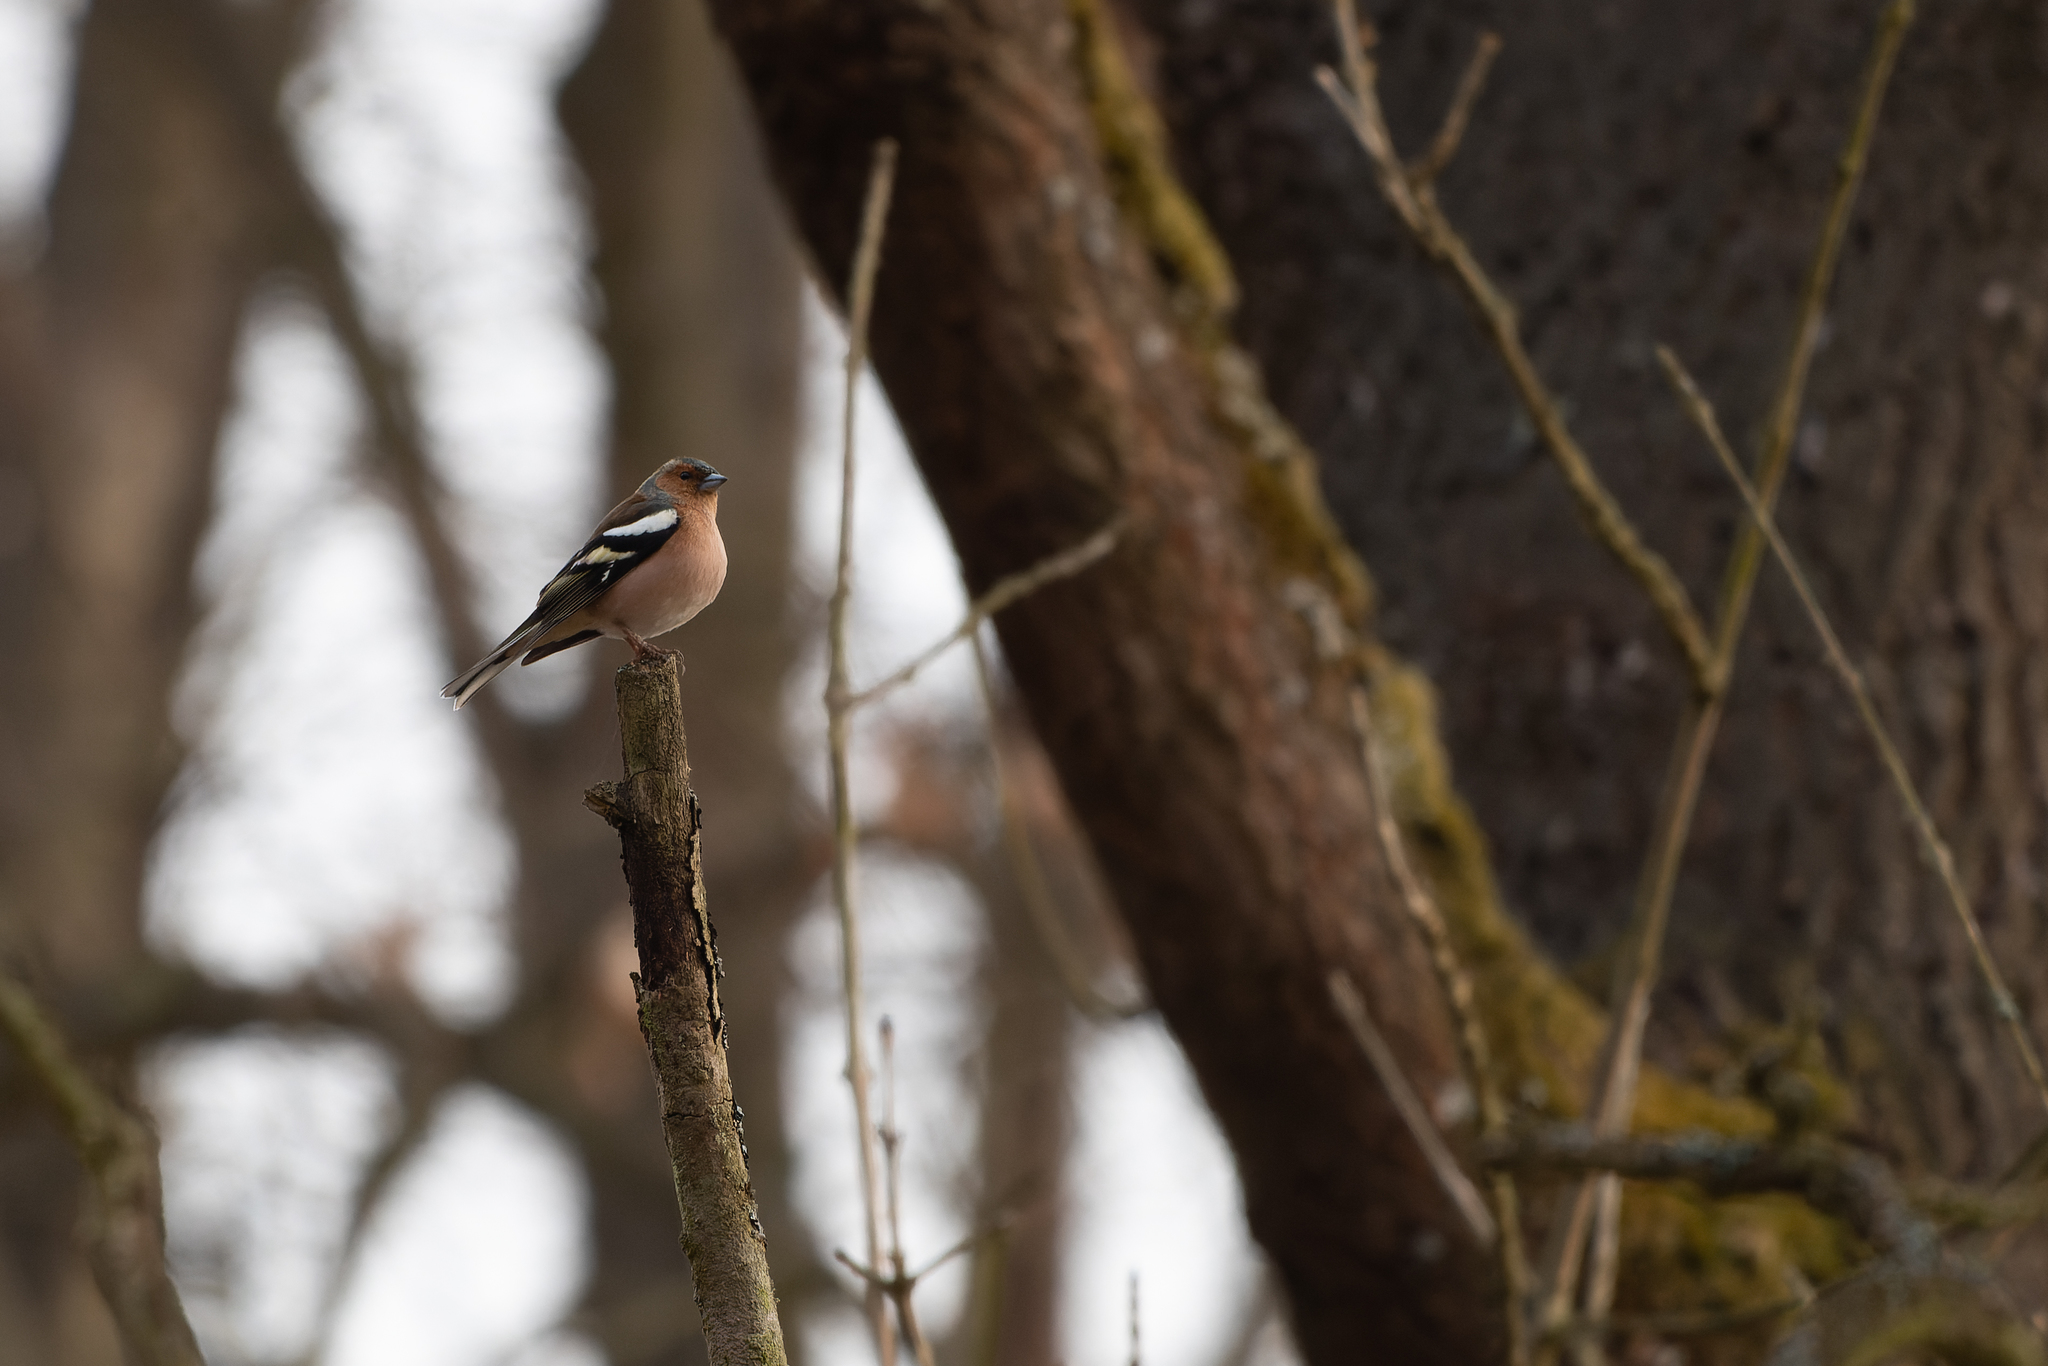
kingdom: Animalia
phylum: Chordata
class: Aves
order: Passeriformes
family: Fringillidae
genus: Fringilla
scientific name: Fringilla coelebs
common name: Common chaffinch
